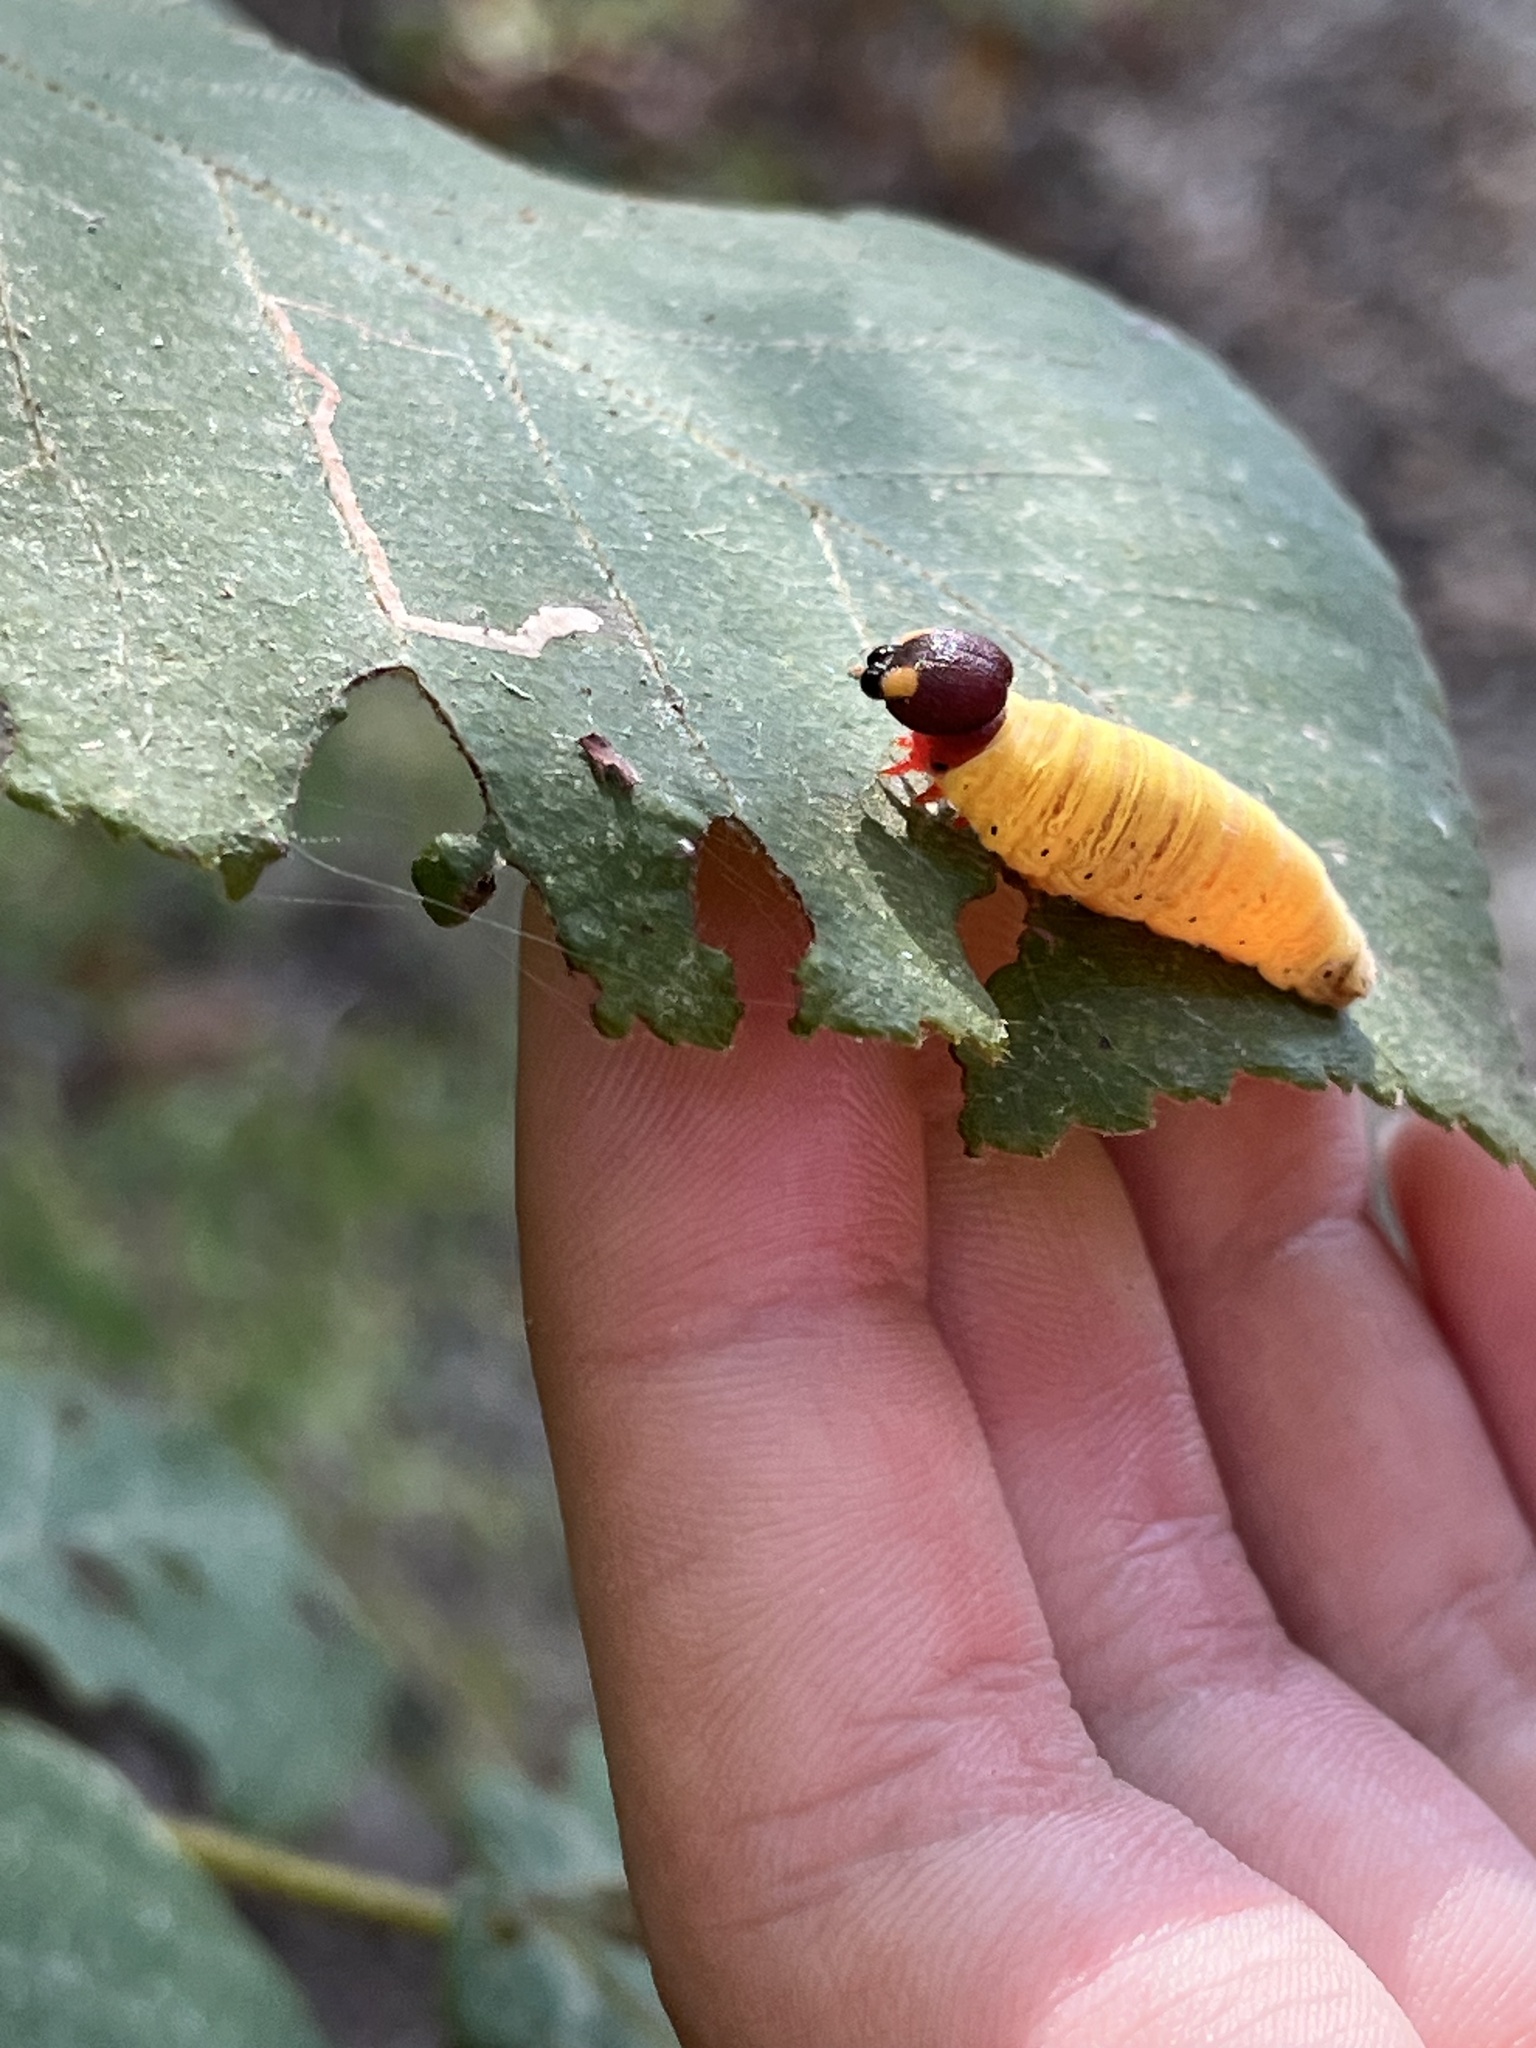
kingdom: Animalia
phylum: Arthropoda
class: Insecta
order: Lepidoptera
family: Hesperiidae
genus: Epargyreus
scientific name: Epargyreus clarus
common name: Silver-spotted skipper
